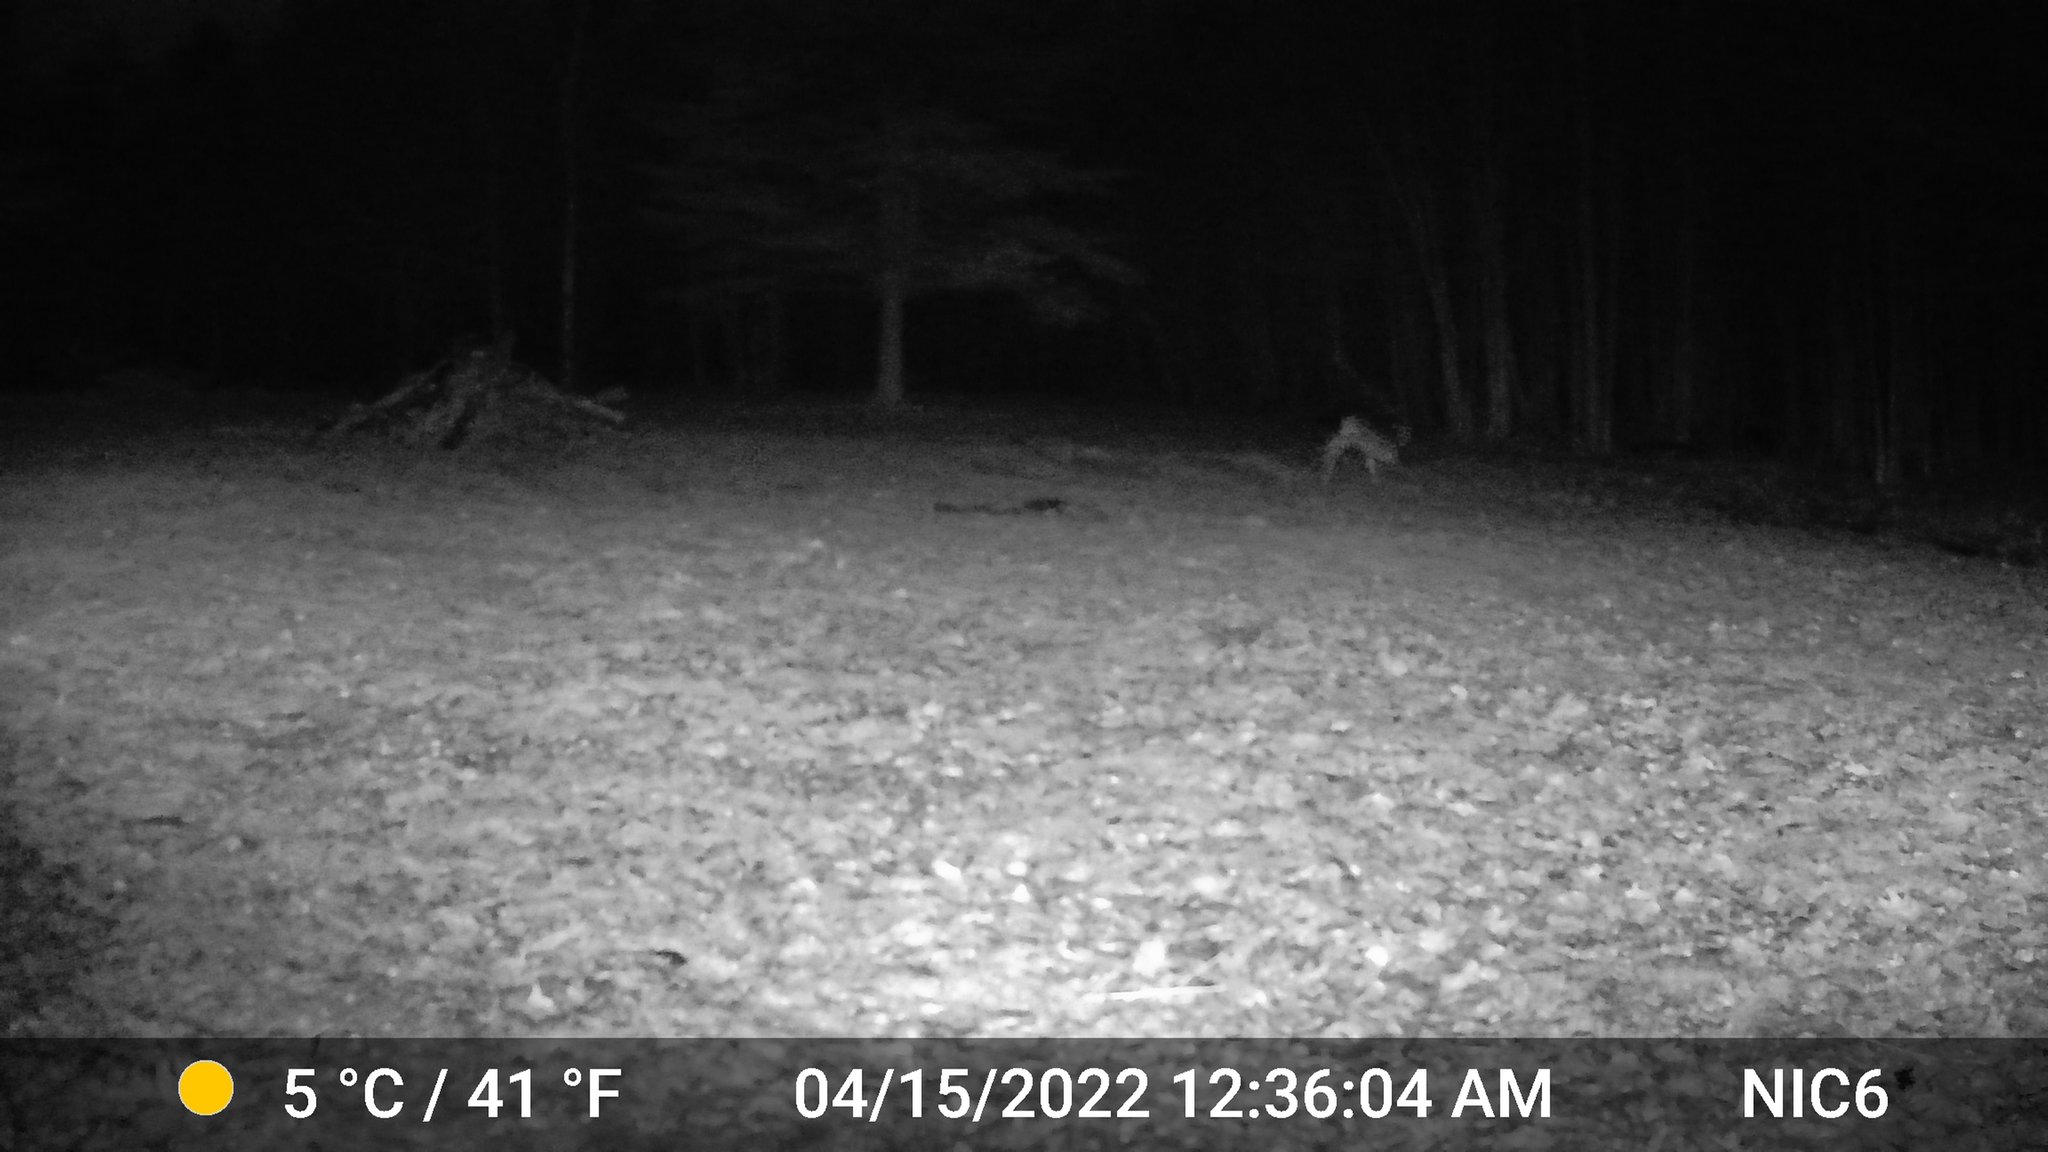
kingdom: Animalia
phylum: Chordata
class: Mammalia
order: Artiodactyla
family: Cervidae
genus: Odocoileus
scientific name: Odocoileus virginianus
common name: White-tailed deer
